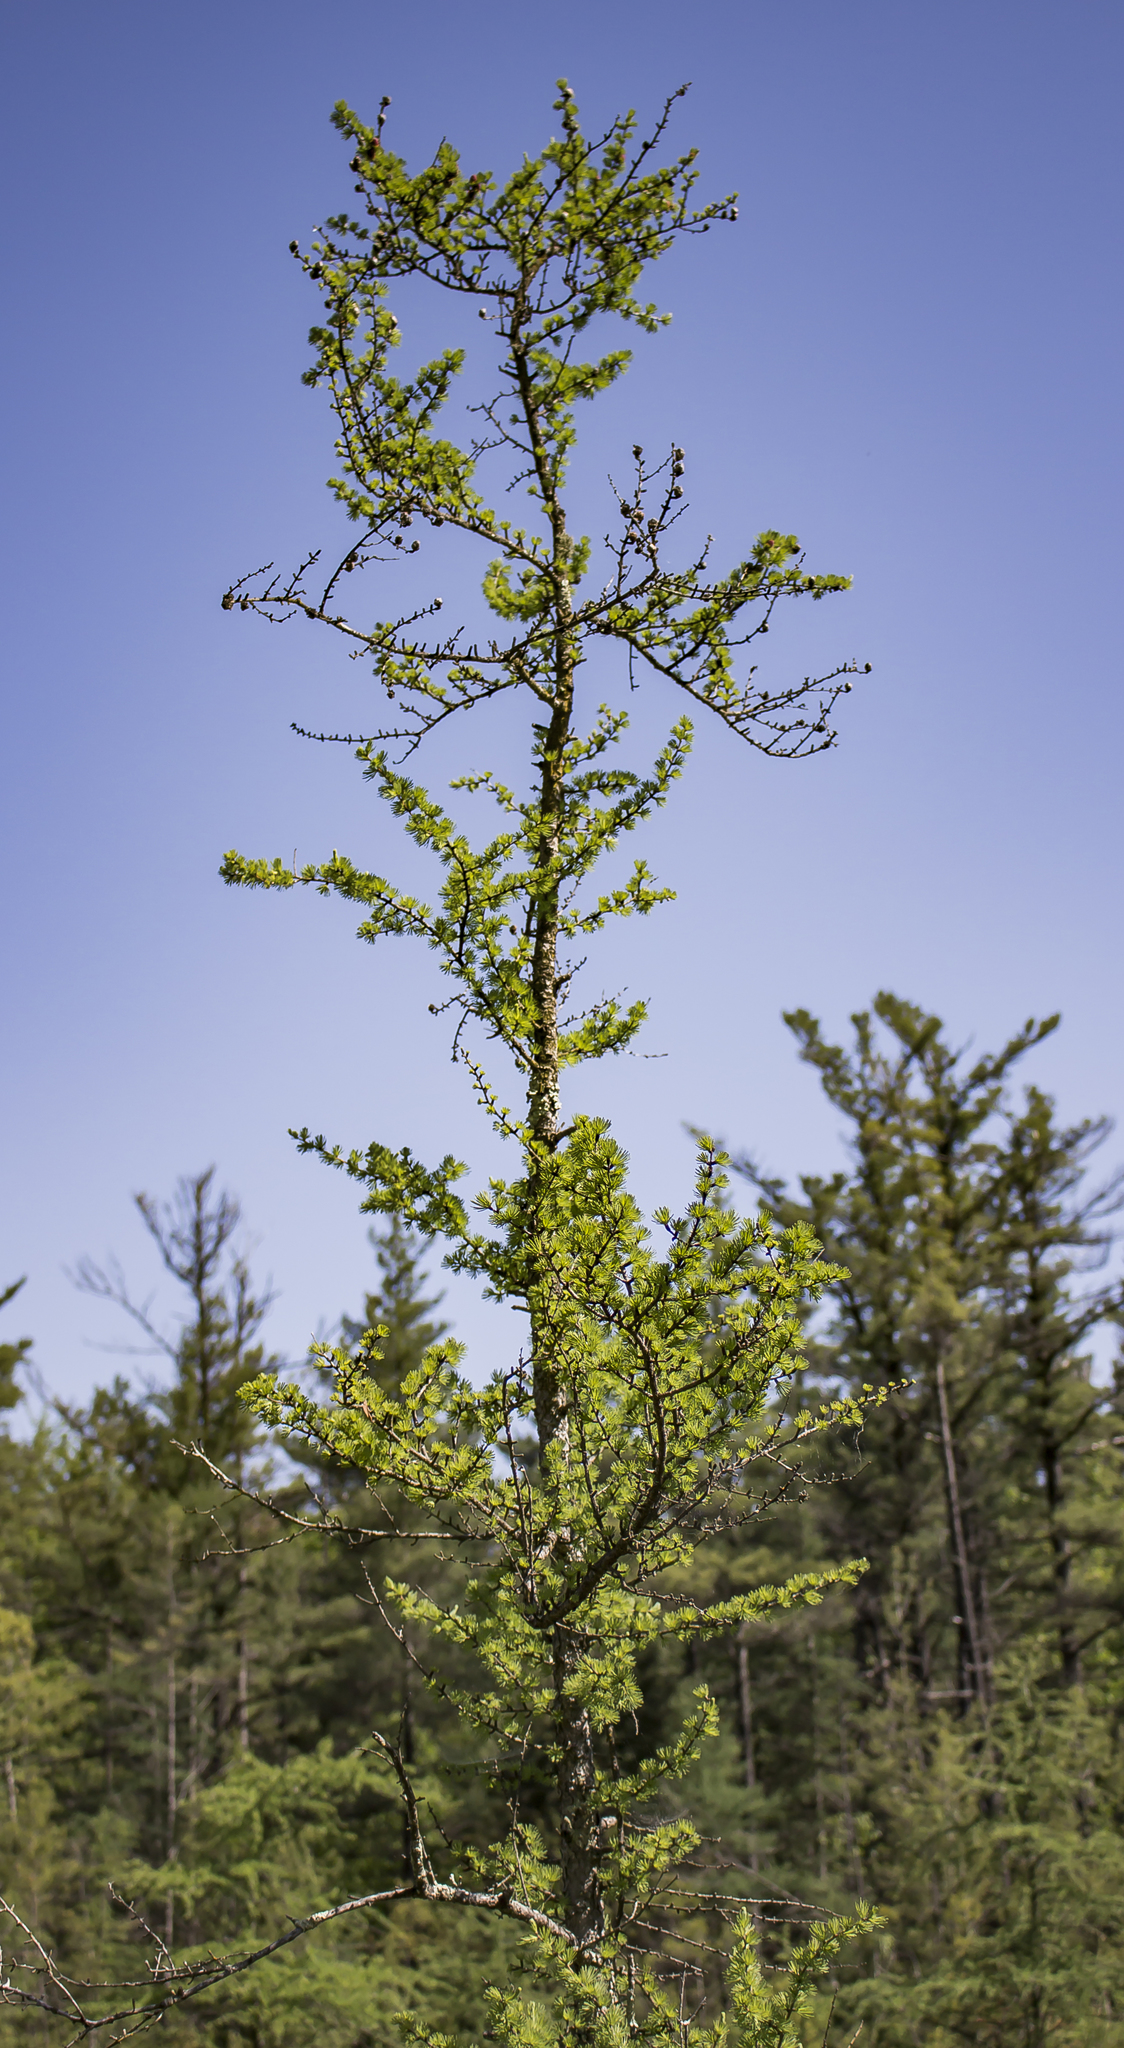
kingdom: Plantae
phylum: Tracheophyta
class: Pinopsida
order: Pinales
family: Pinaceae
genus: Larix
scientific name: Larix laricina
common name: American larch
